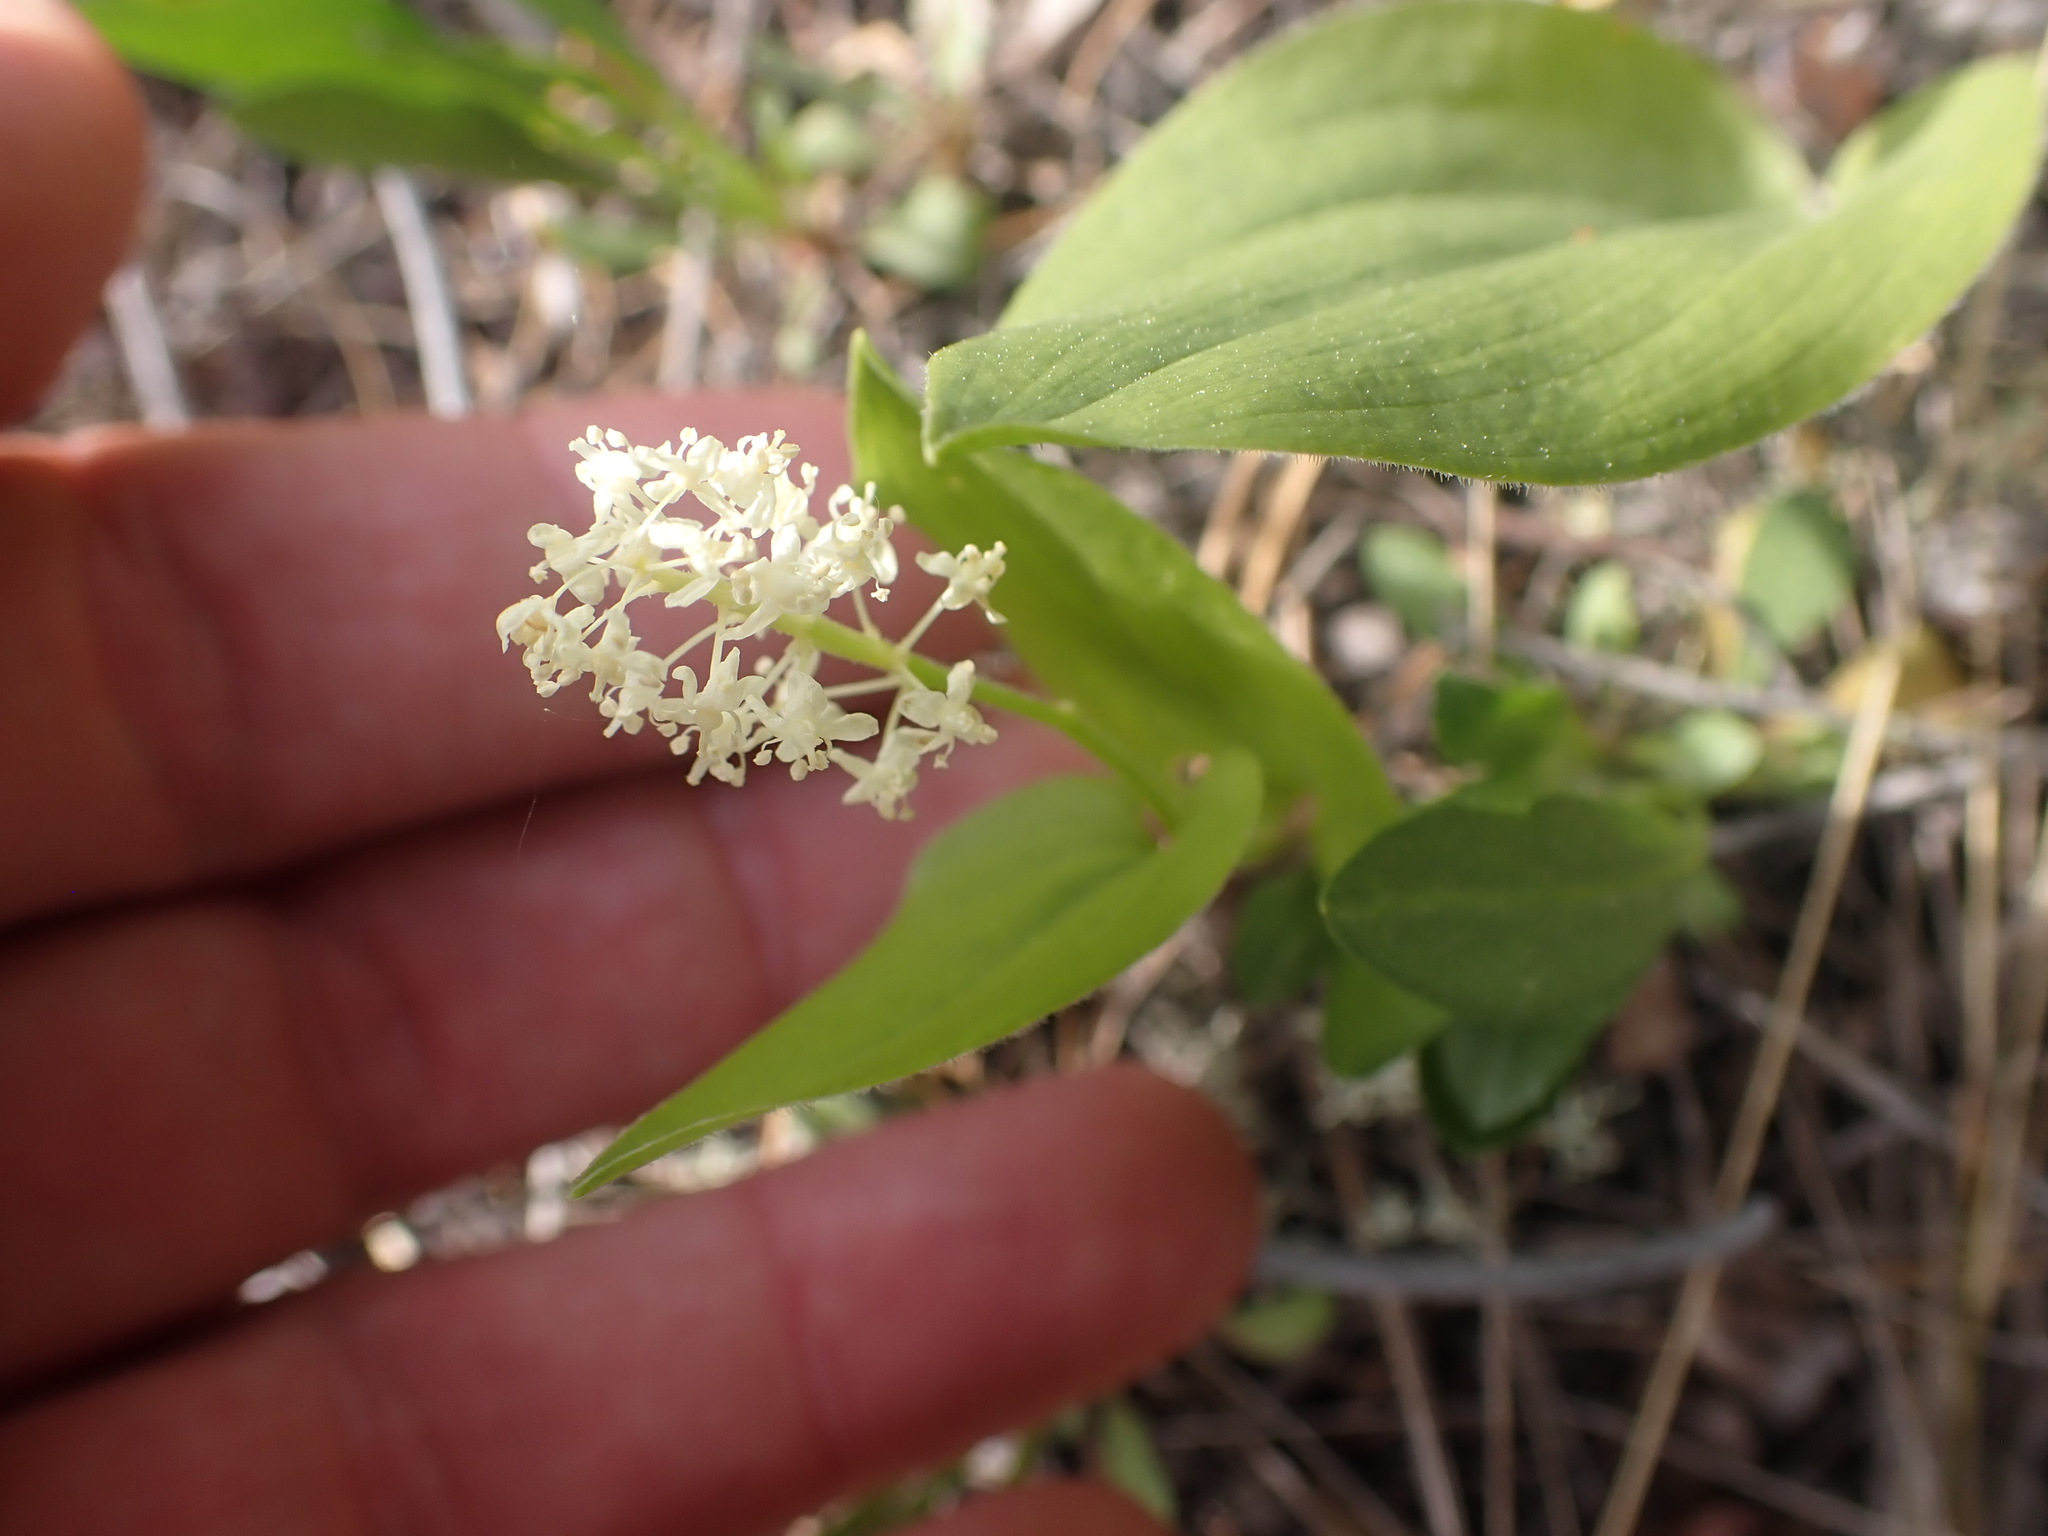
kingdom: Plantae
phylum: Tracheophyta
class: Liliopsida
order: Asparagales
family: Asparagaceae
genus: Maianthemum
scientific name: Maianthemum canadense
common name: False lily-of-the-valley
